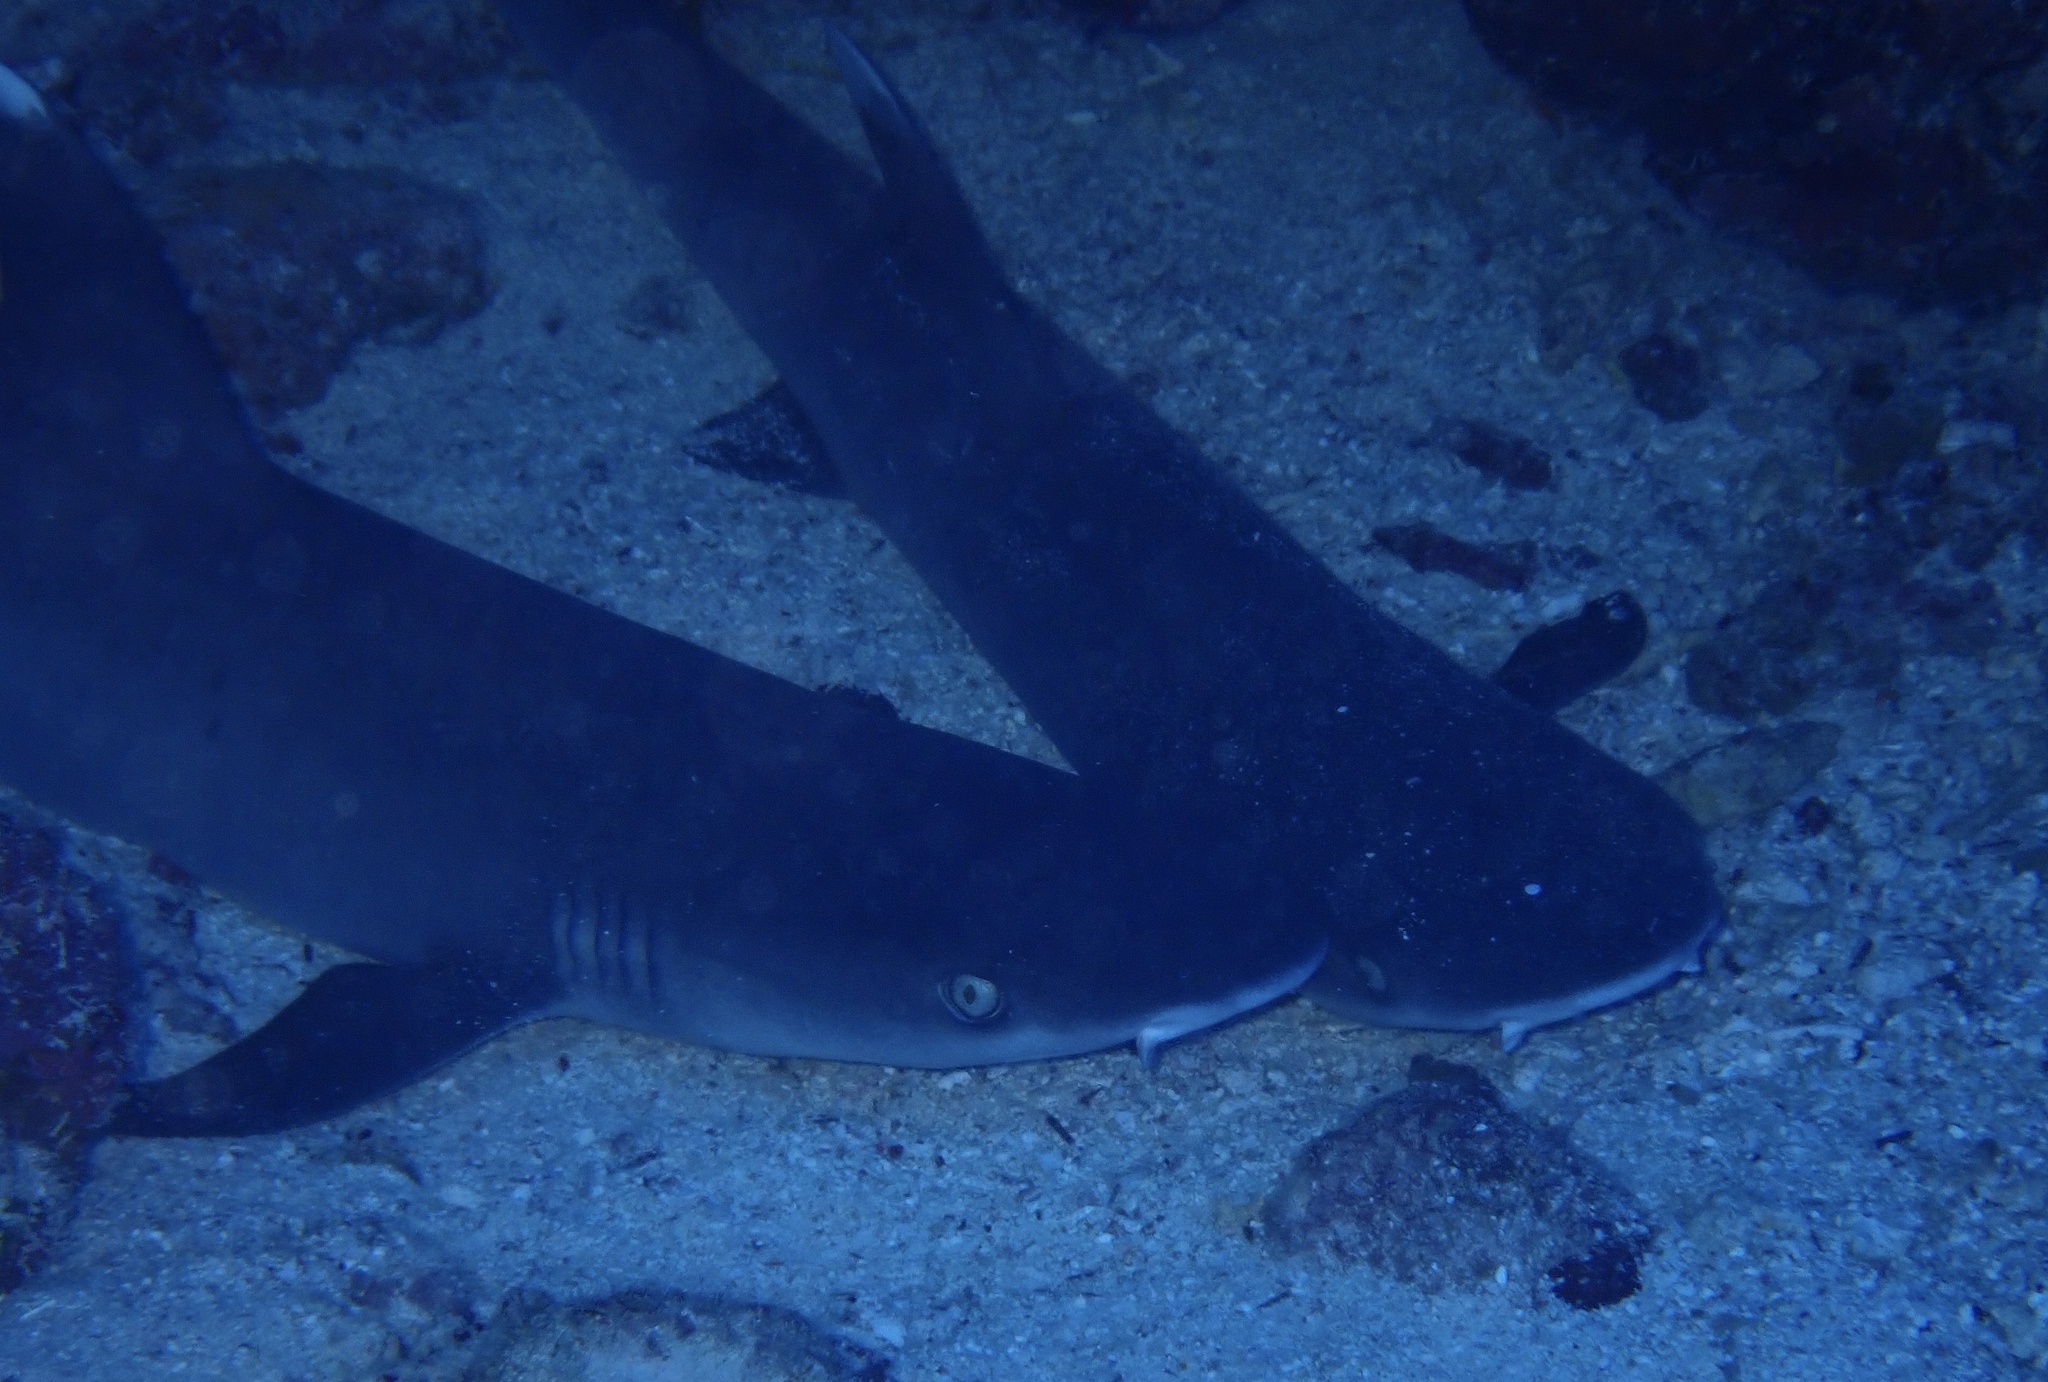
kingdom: Animalia
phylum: Chordata
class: Elasmobranchii
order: Carcharhiniformes
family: Carcharhinidae
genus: Triaenodon
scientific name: Triaenodon obesus
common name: Whitetip reef shark
